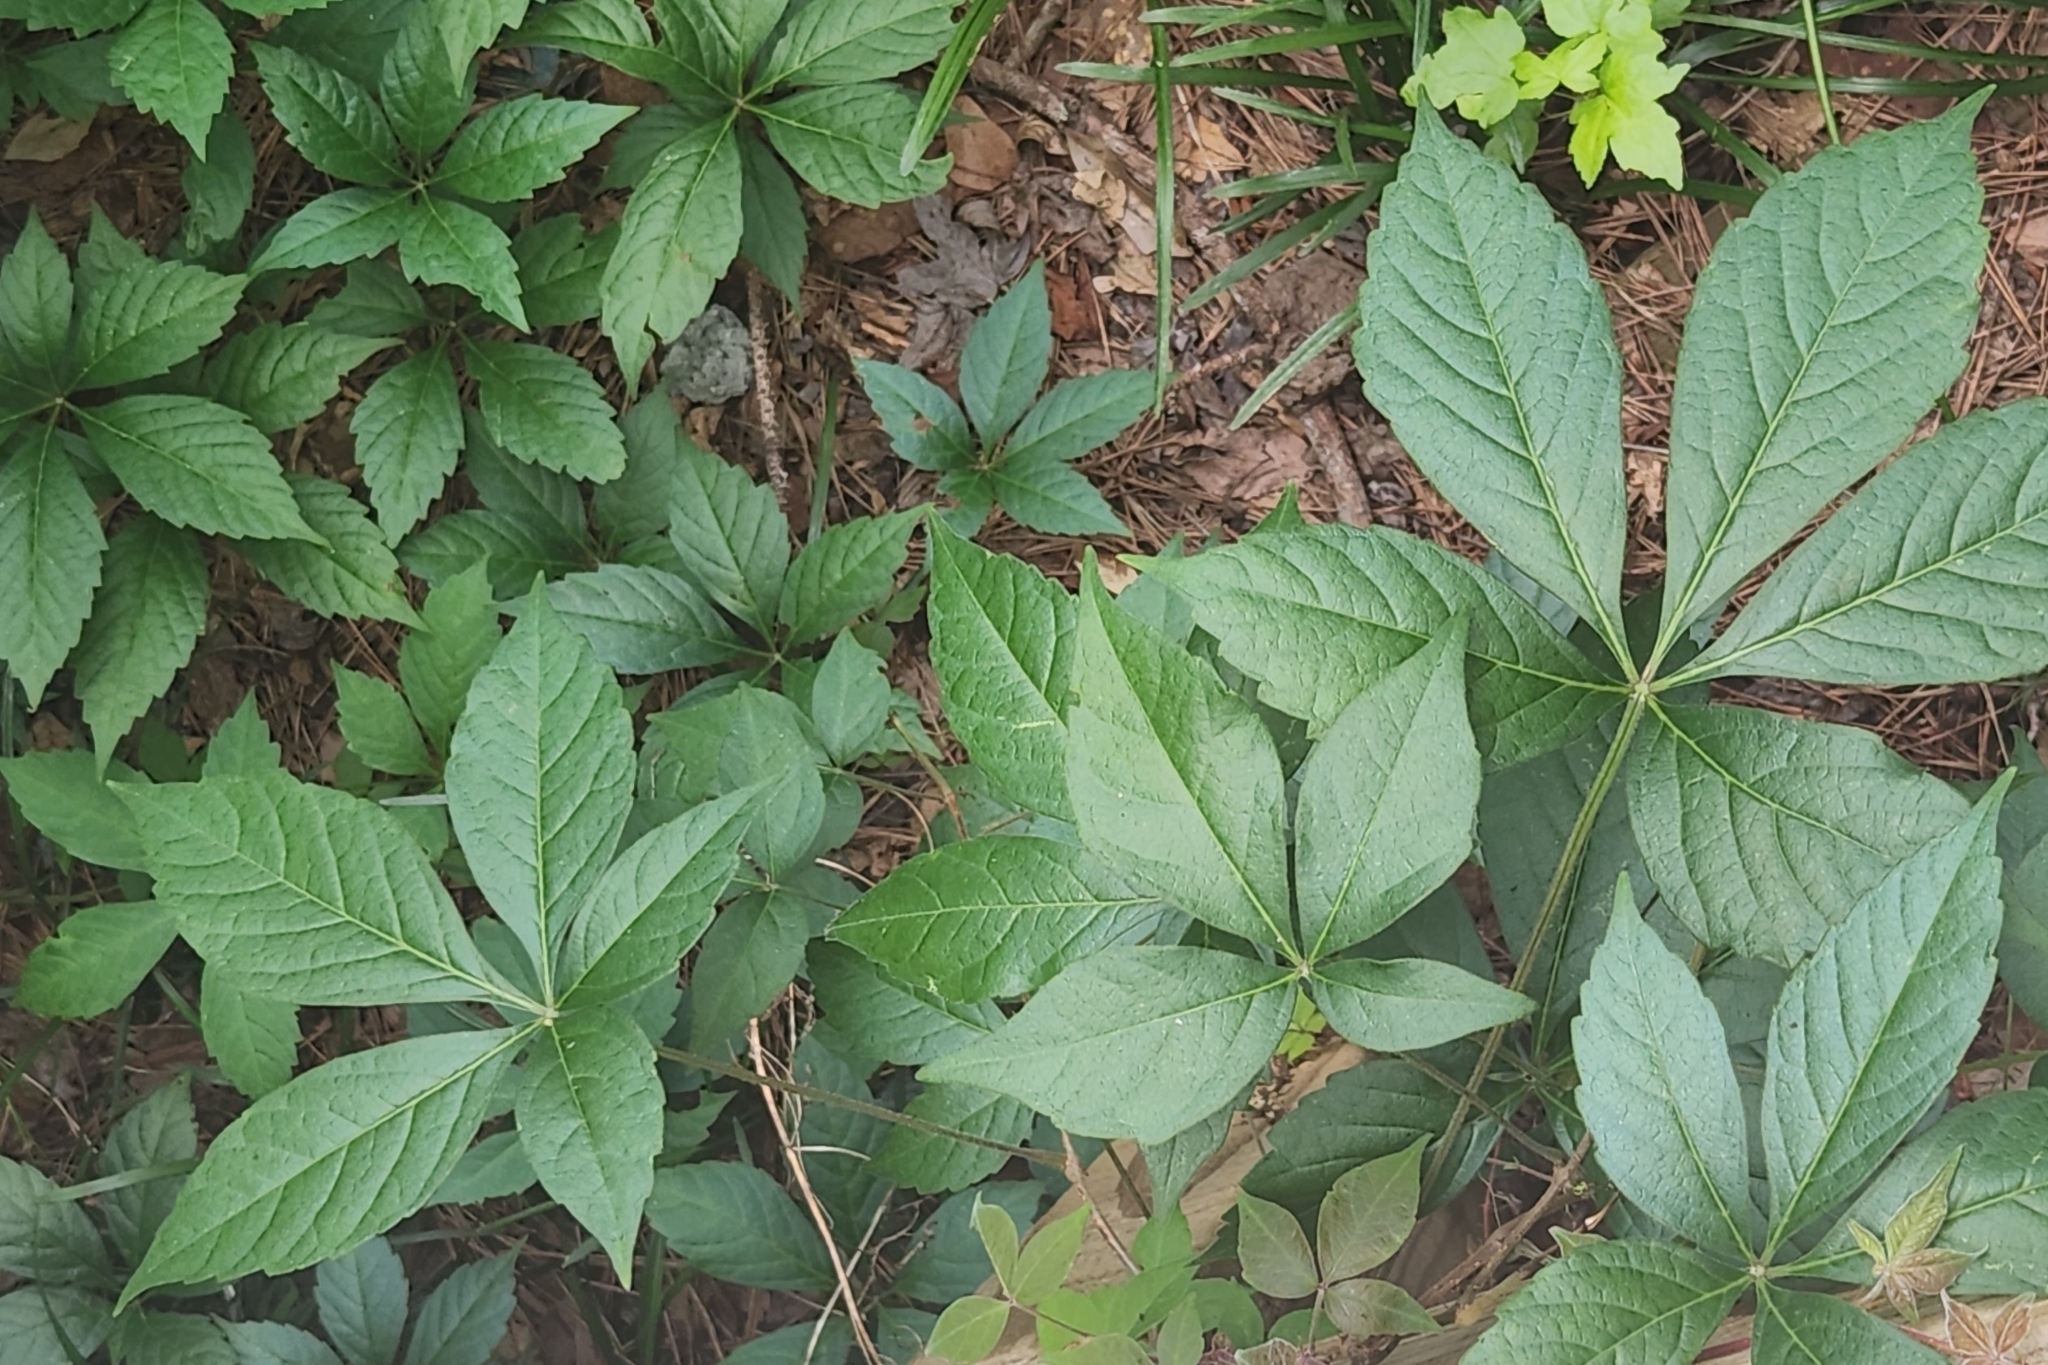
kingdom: Plantae
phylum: Tracheophyta
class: Magnoliopsida
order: Vitales
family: Vitaceae
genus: Parthenocissus
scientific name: Parthenocissus quinquefolia
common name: Virginia-creeper
